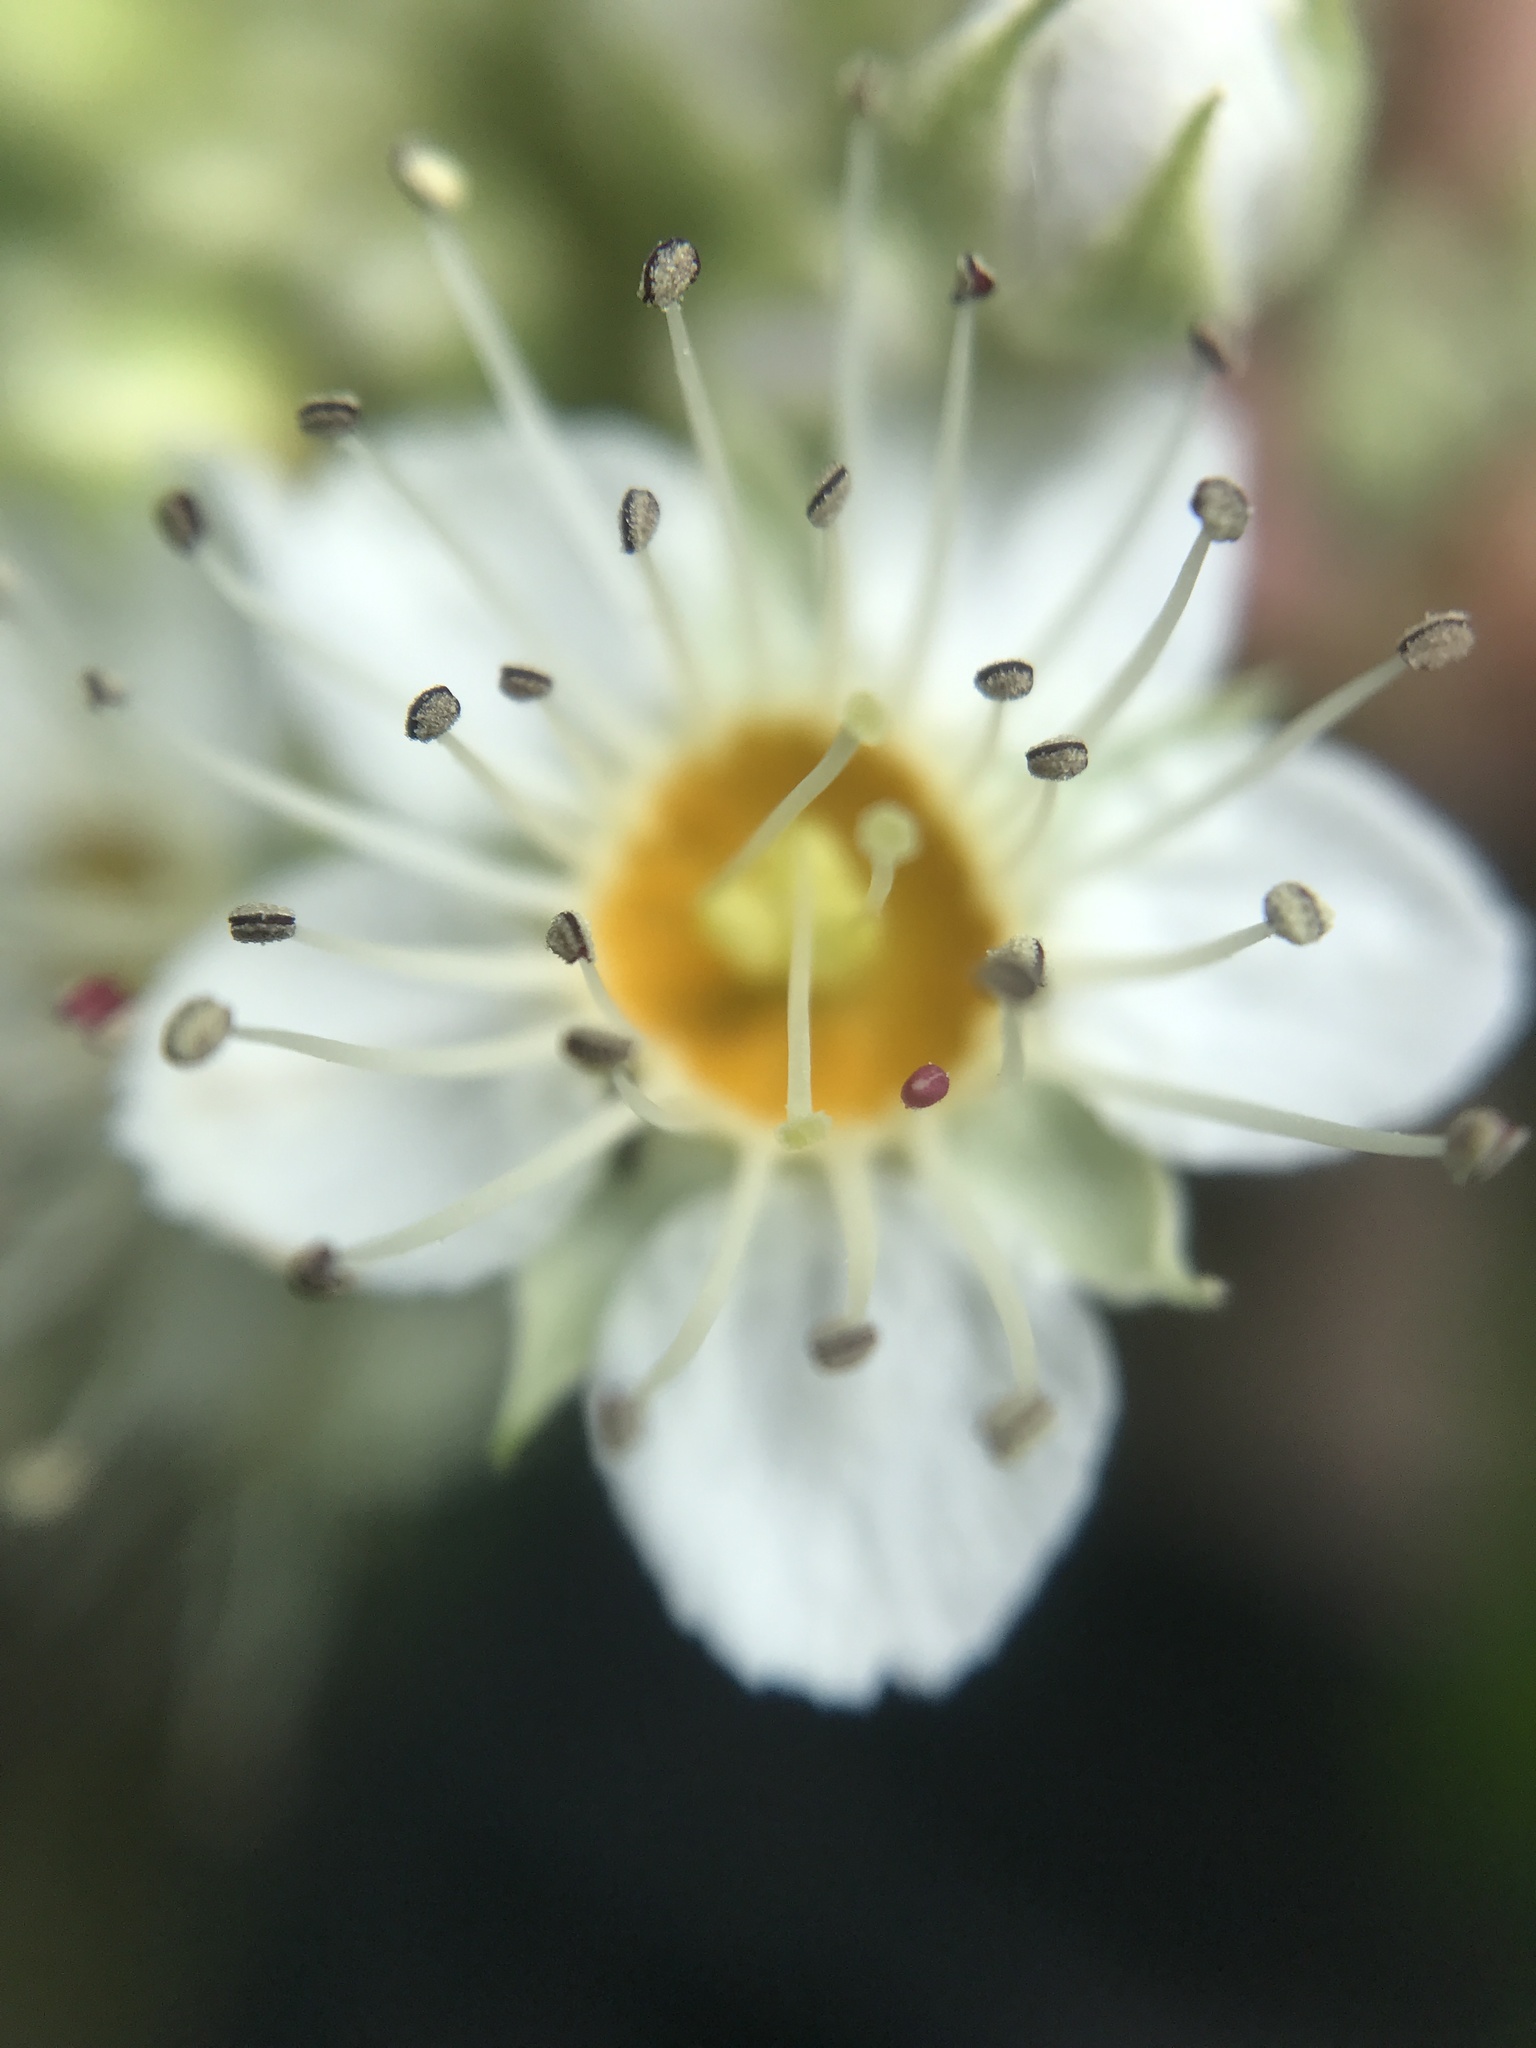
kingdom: Plantae
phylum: Tracheophyta
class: Magnoliopsida
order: Rosales
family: Rosaceae
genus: Physocarpus
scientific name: Physocarpus capitatus
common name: Pacific ninebark
